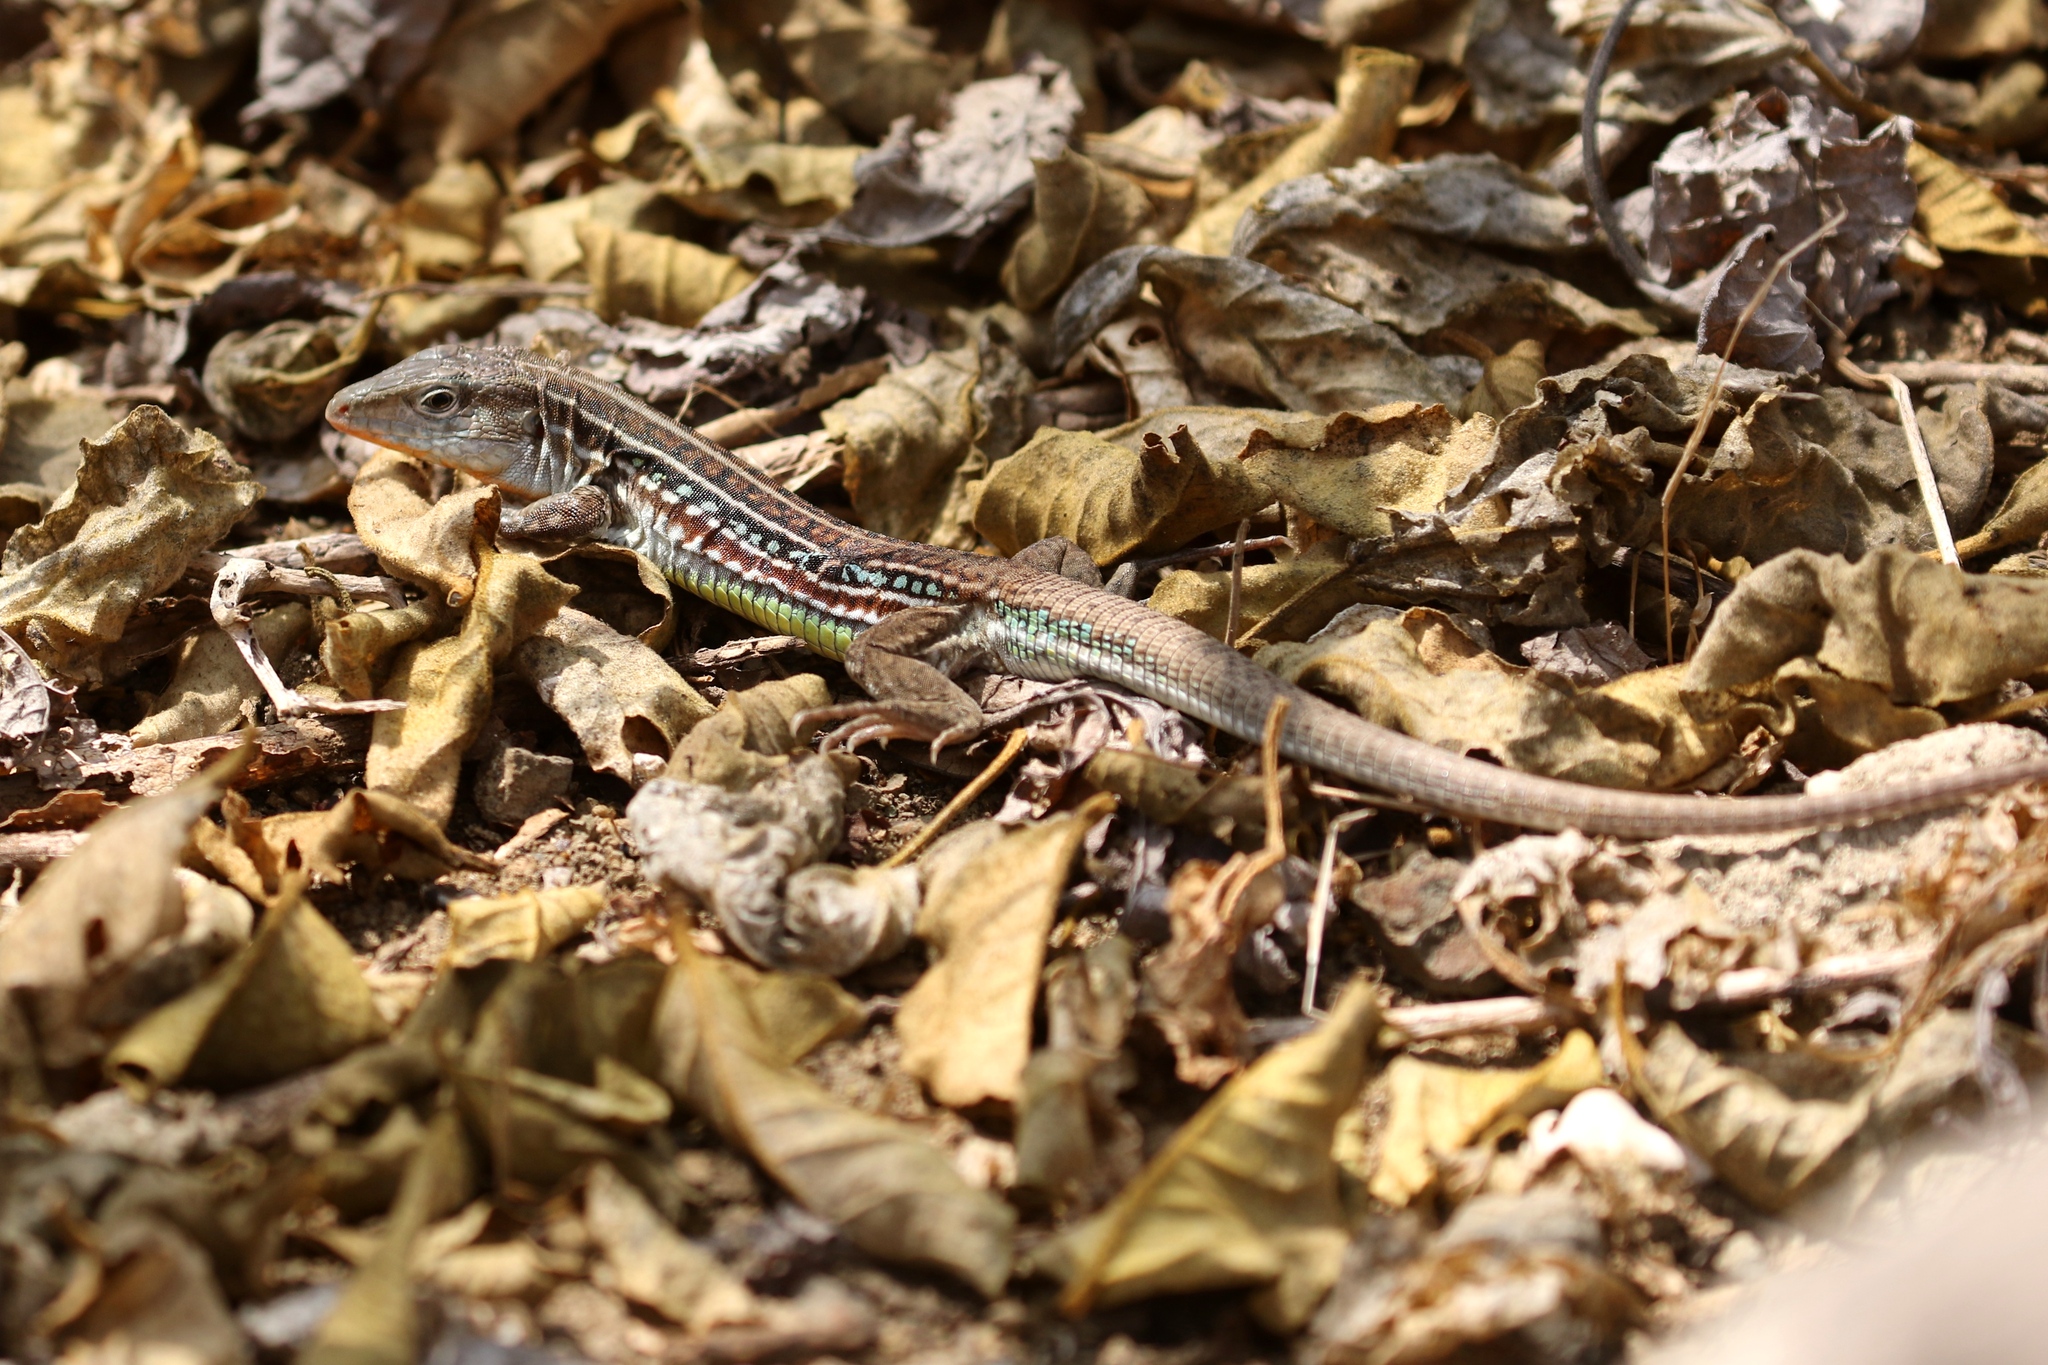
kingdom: Animalia
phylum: Chordata
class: Squamata
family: Teiidae
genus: Holcosus
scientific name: Holcosus septemlineatus
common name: Seven-lined ameiva
